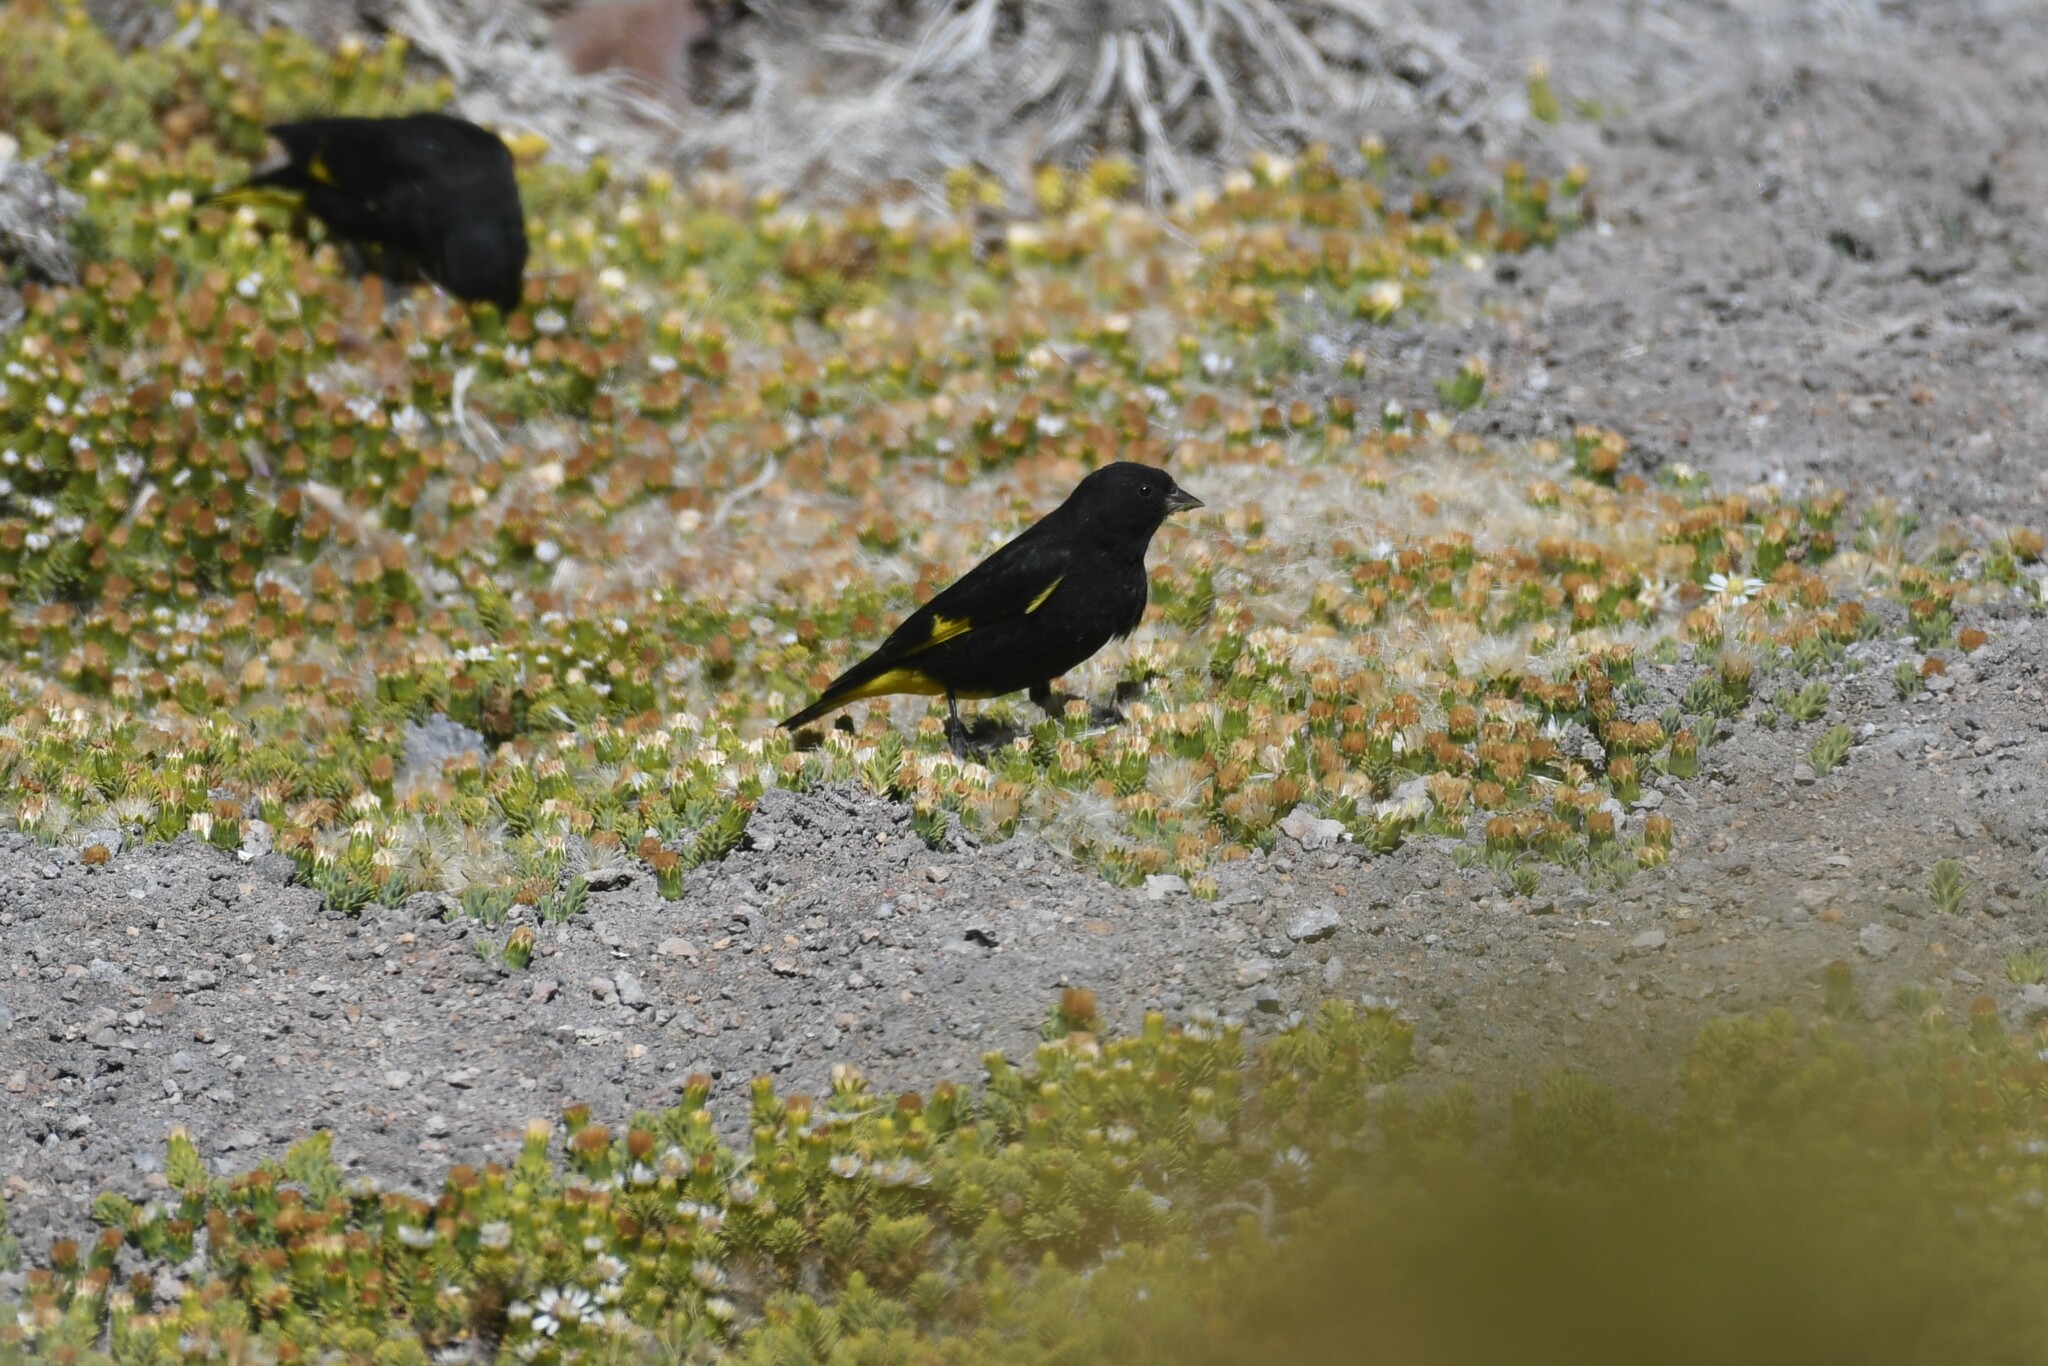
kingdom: Animalia
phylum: Chordata
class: Aves
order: Passeriformes
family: Fringillidae
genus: Spinus
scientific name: Spinus atratus
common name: Black siskin
